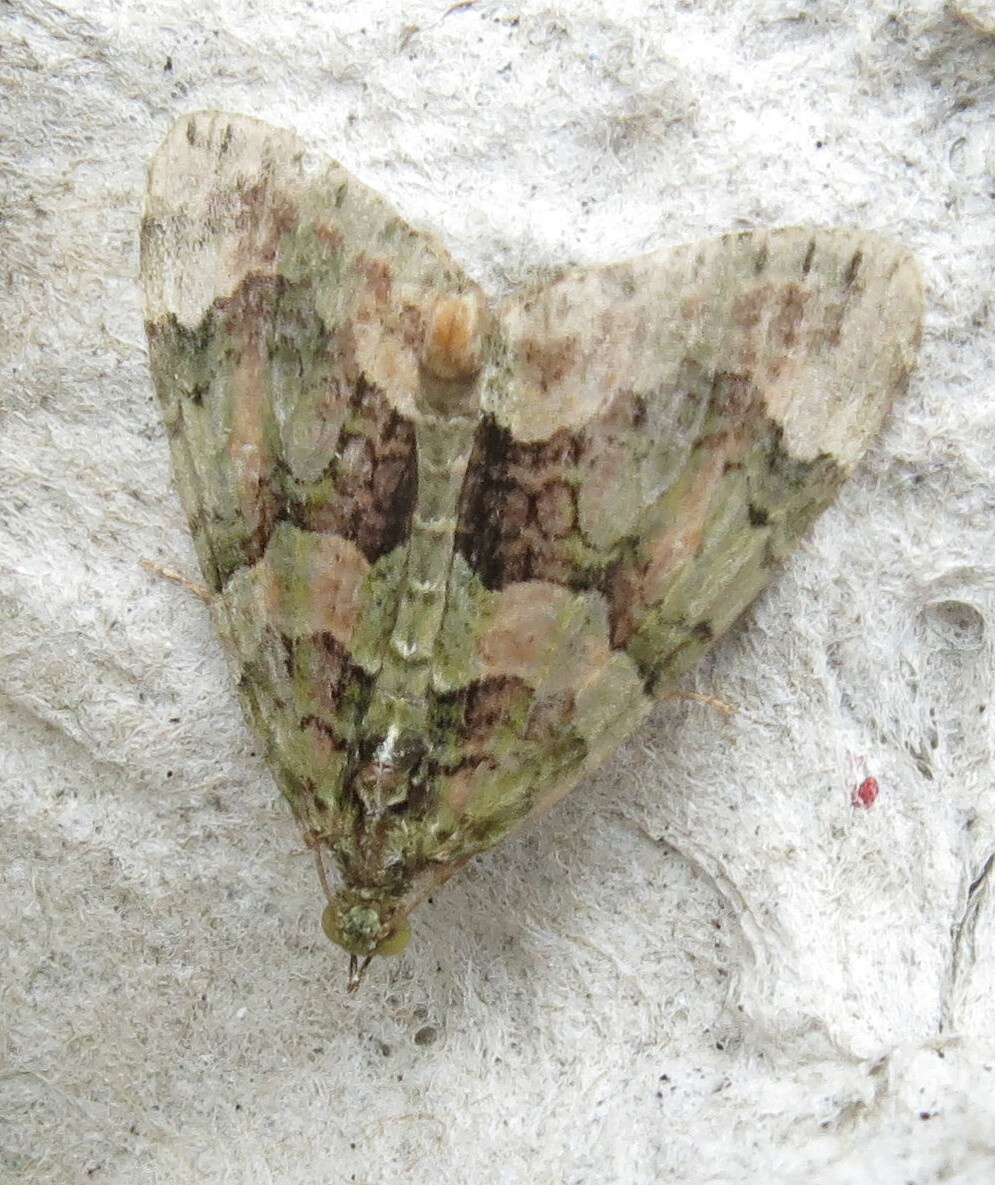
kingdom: Animalia
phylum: Arthropoda
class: Insecta
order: Lepidoptera
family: Geometridae
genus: Chloroclysta
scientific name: Chloroclysta siterata
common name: Red-green carpet
